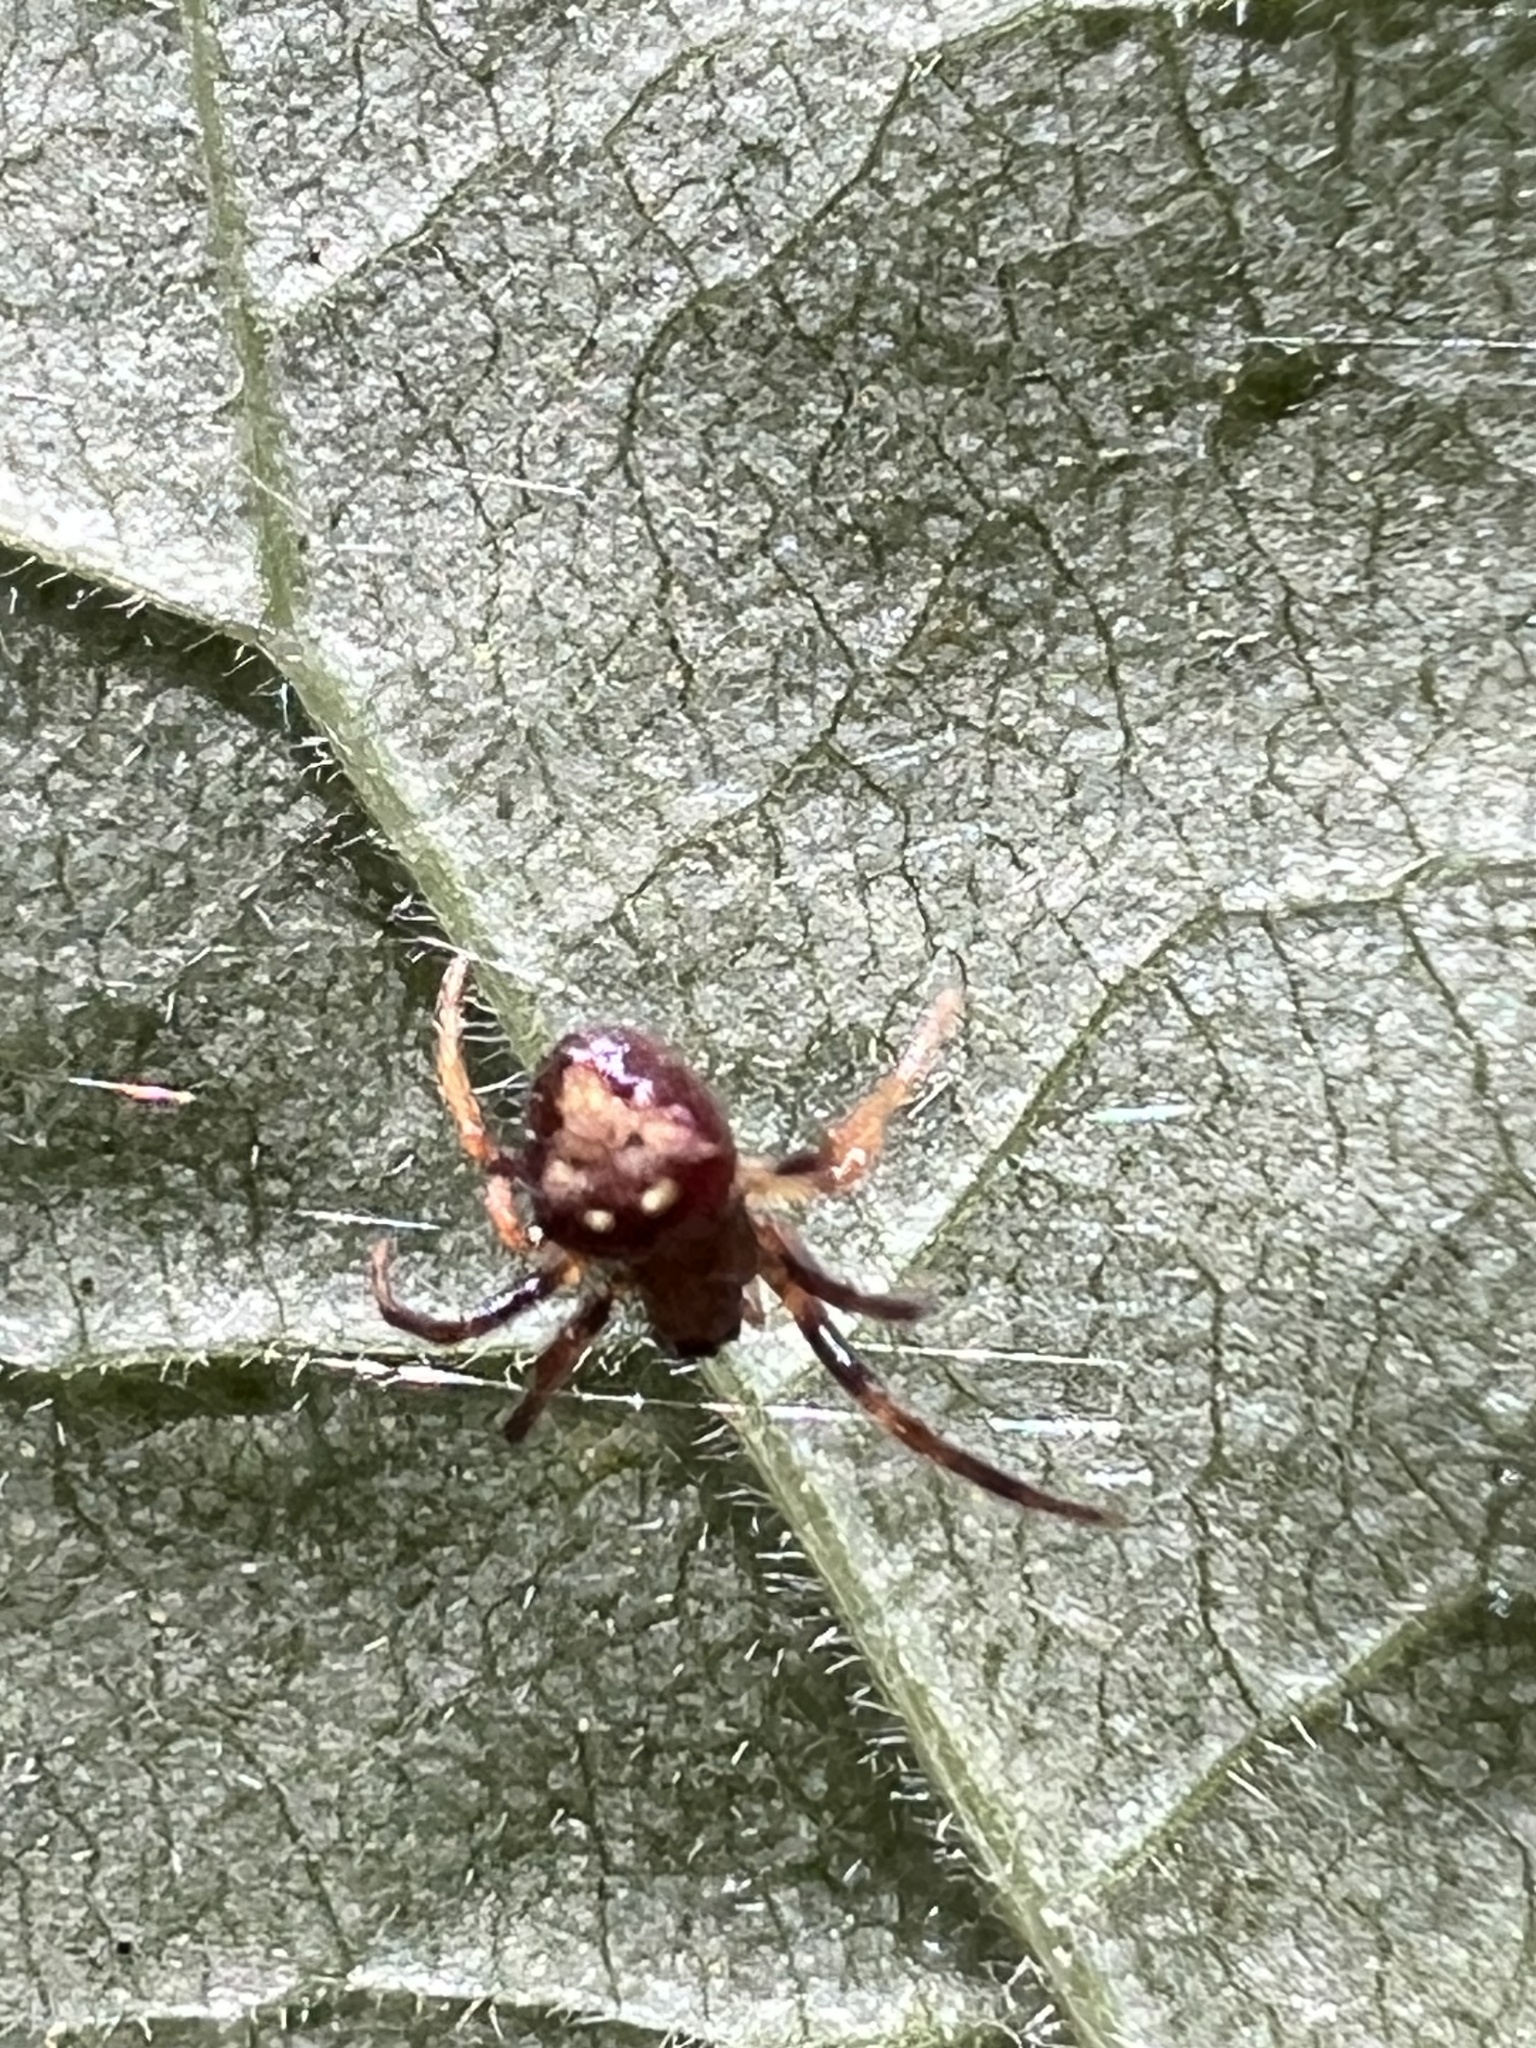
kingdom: Animalia
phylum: Arthropoda
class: Arachnida
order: Araneae
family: Araneidae
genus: Verrucosa
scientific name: Verrucosa arenata
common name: Orb weavers
